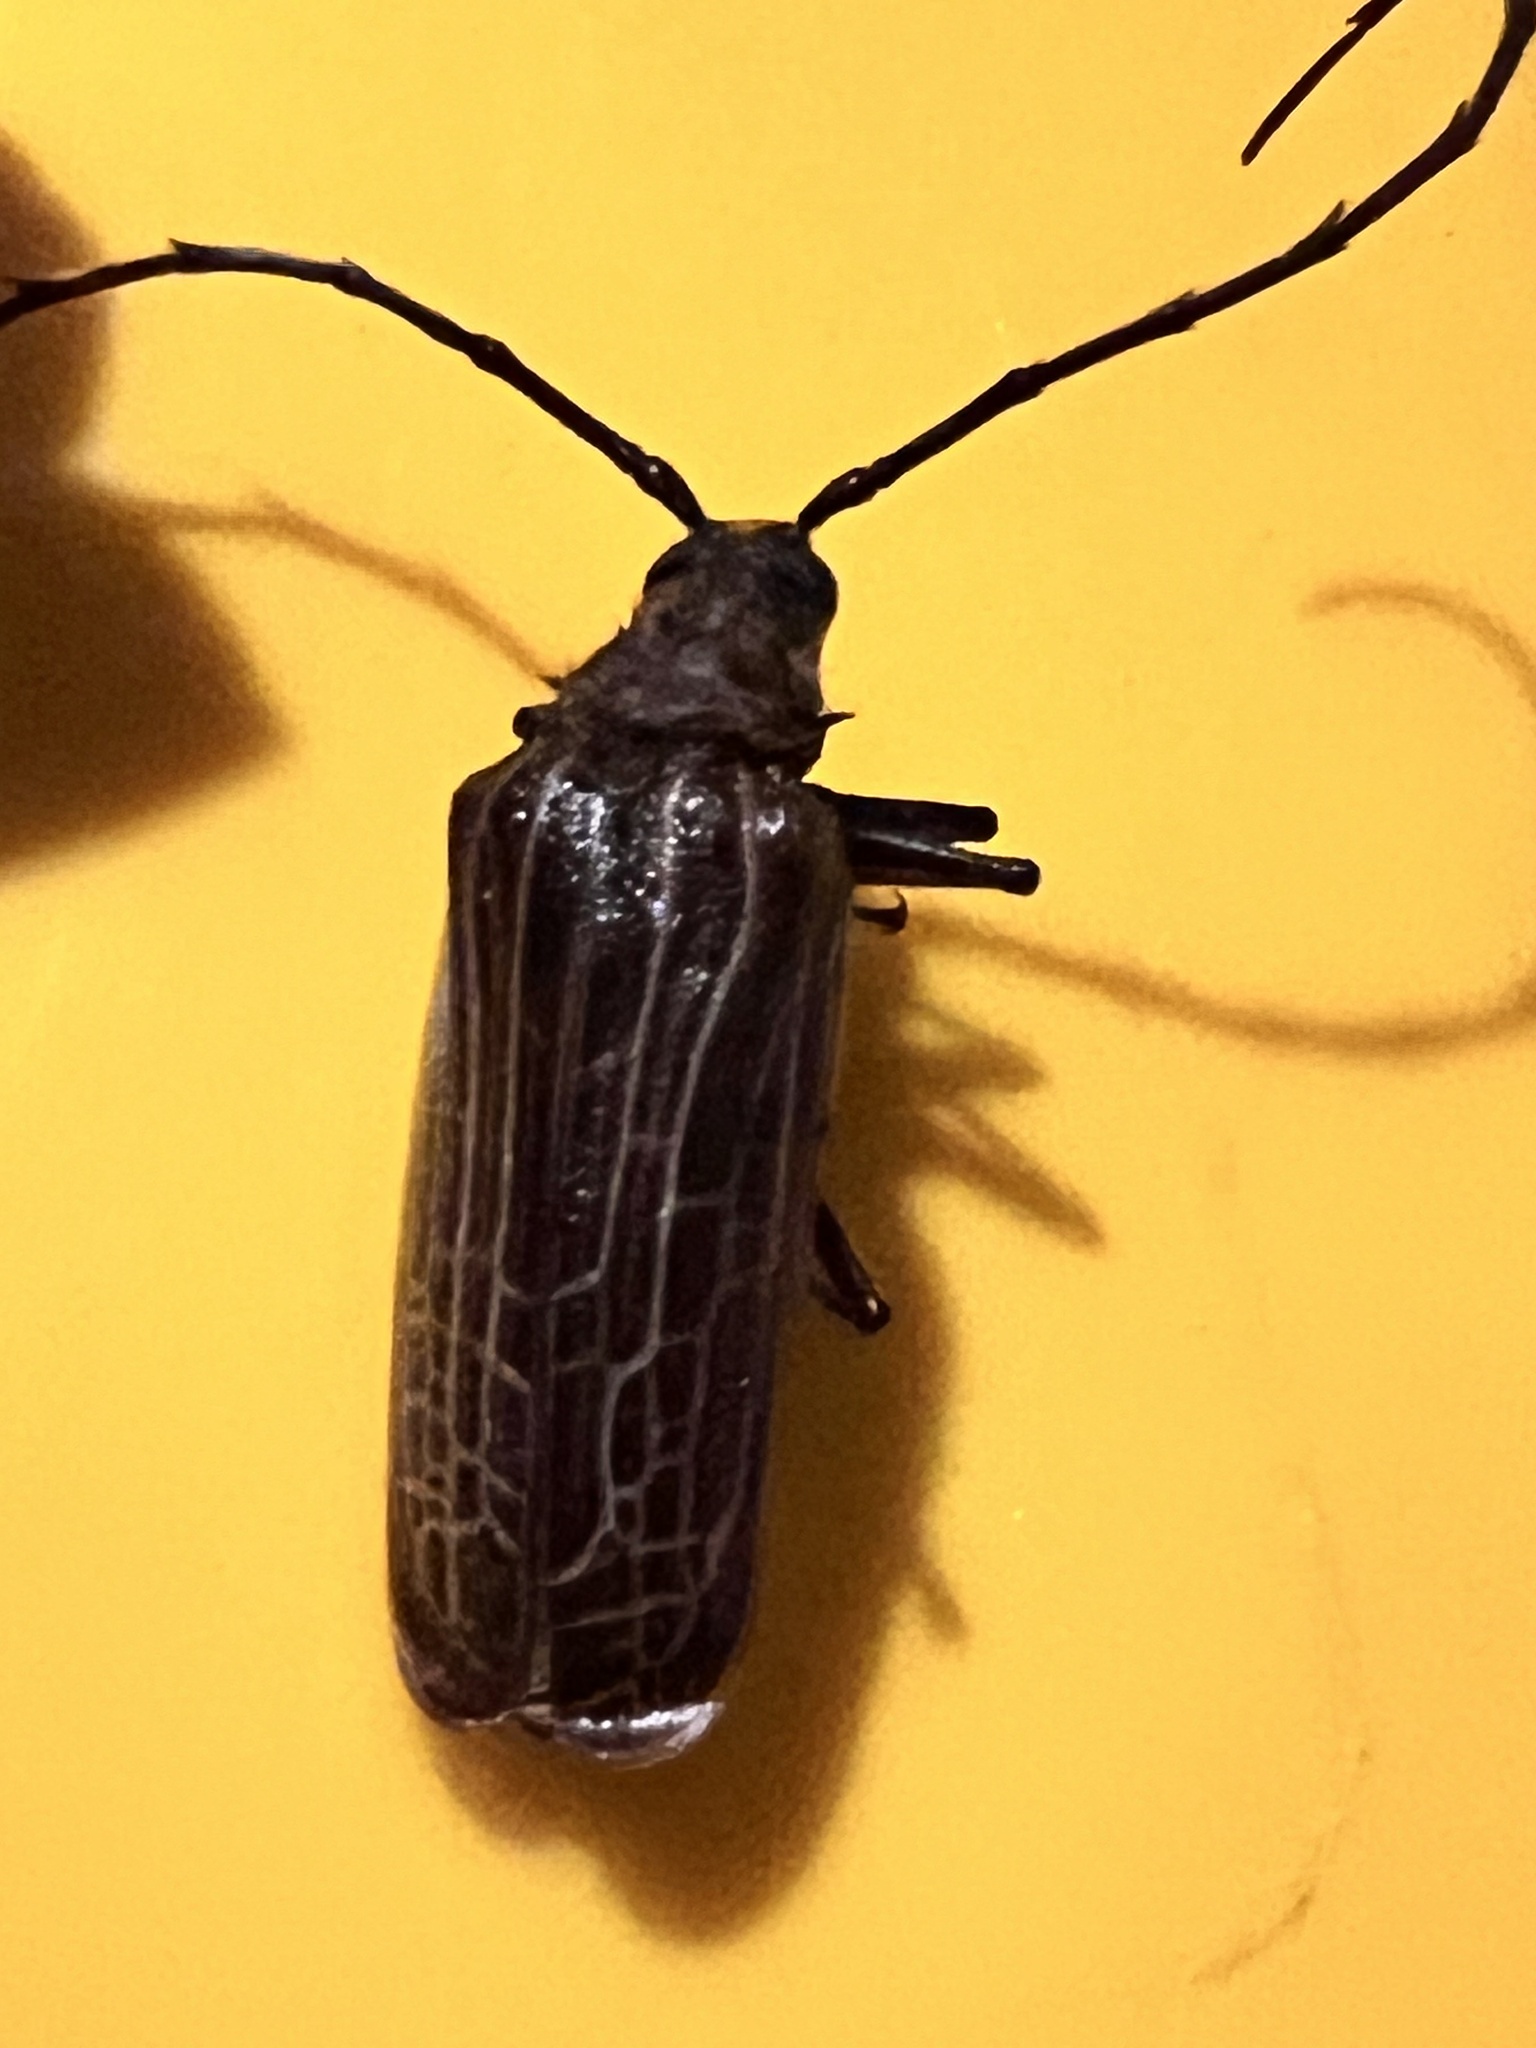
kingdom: Animalia
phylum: Arthropoda
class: Insecta
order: Coleoptera
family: Cerambycidae
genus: Prionoplus
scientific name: Prionoplus reticularis
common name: Huhu beetle
